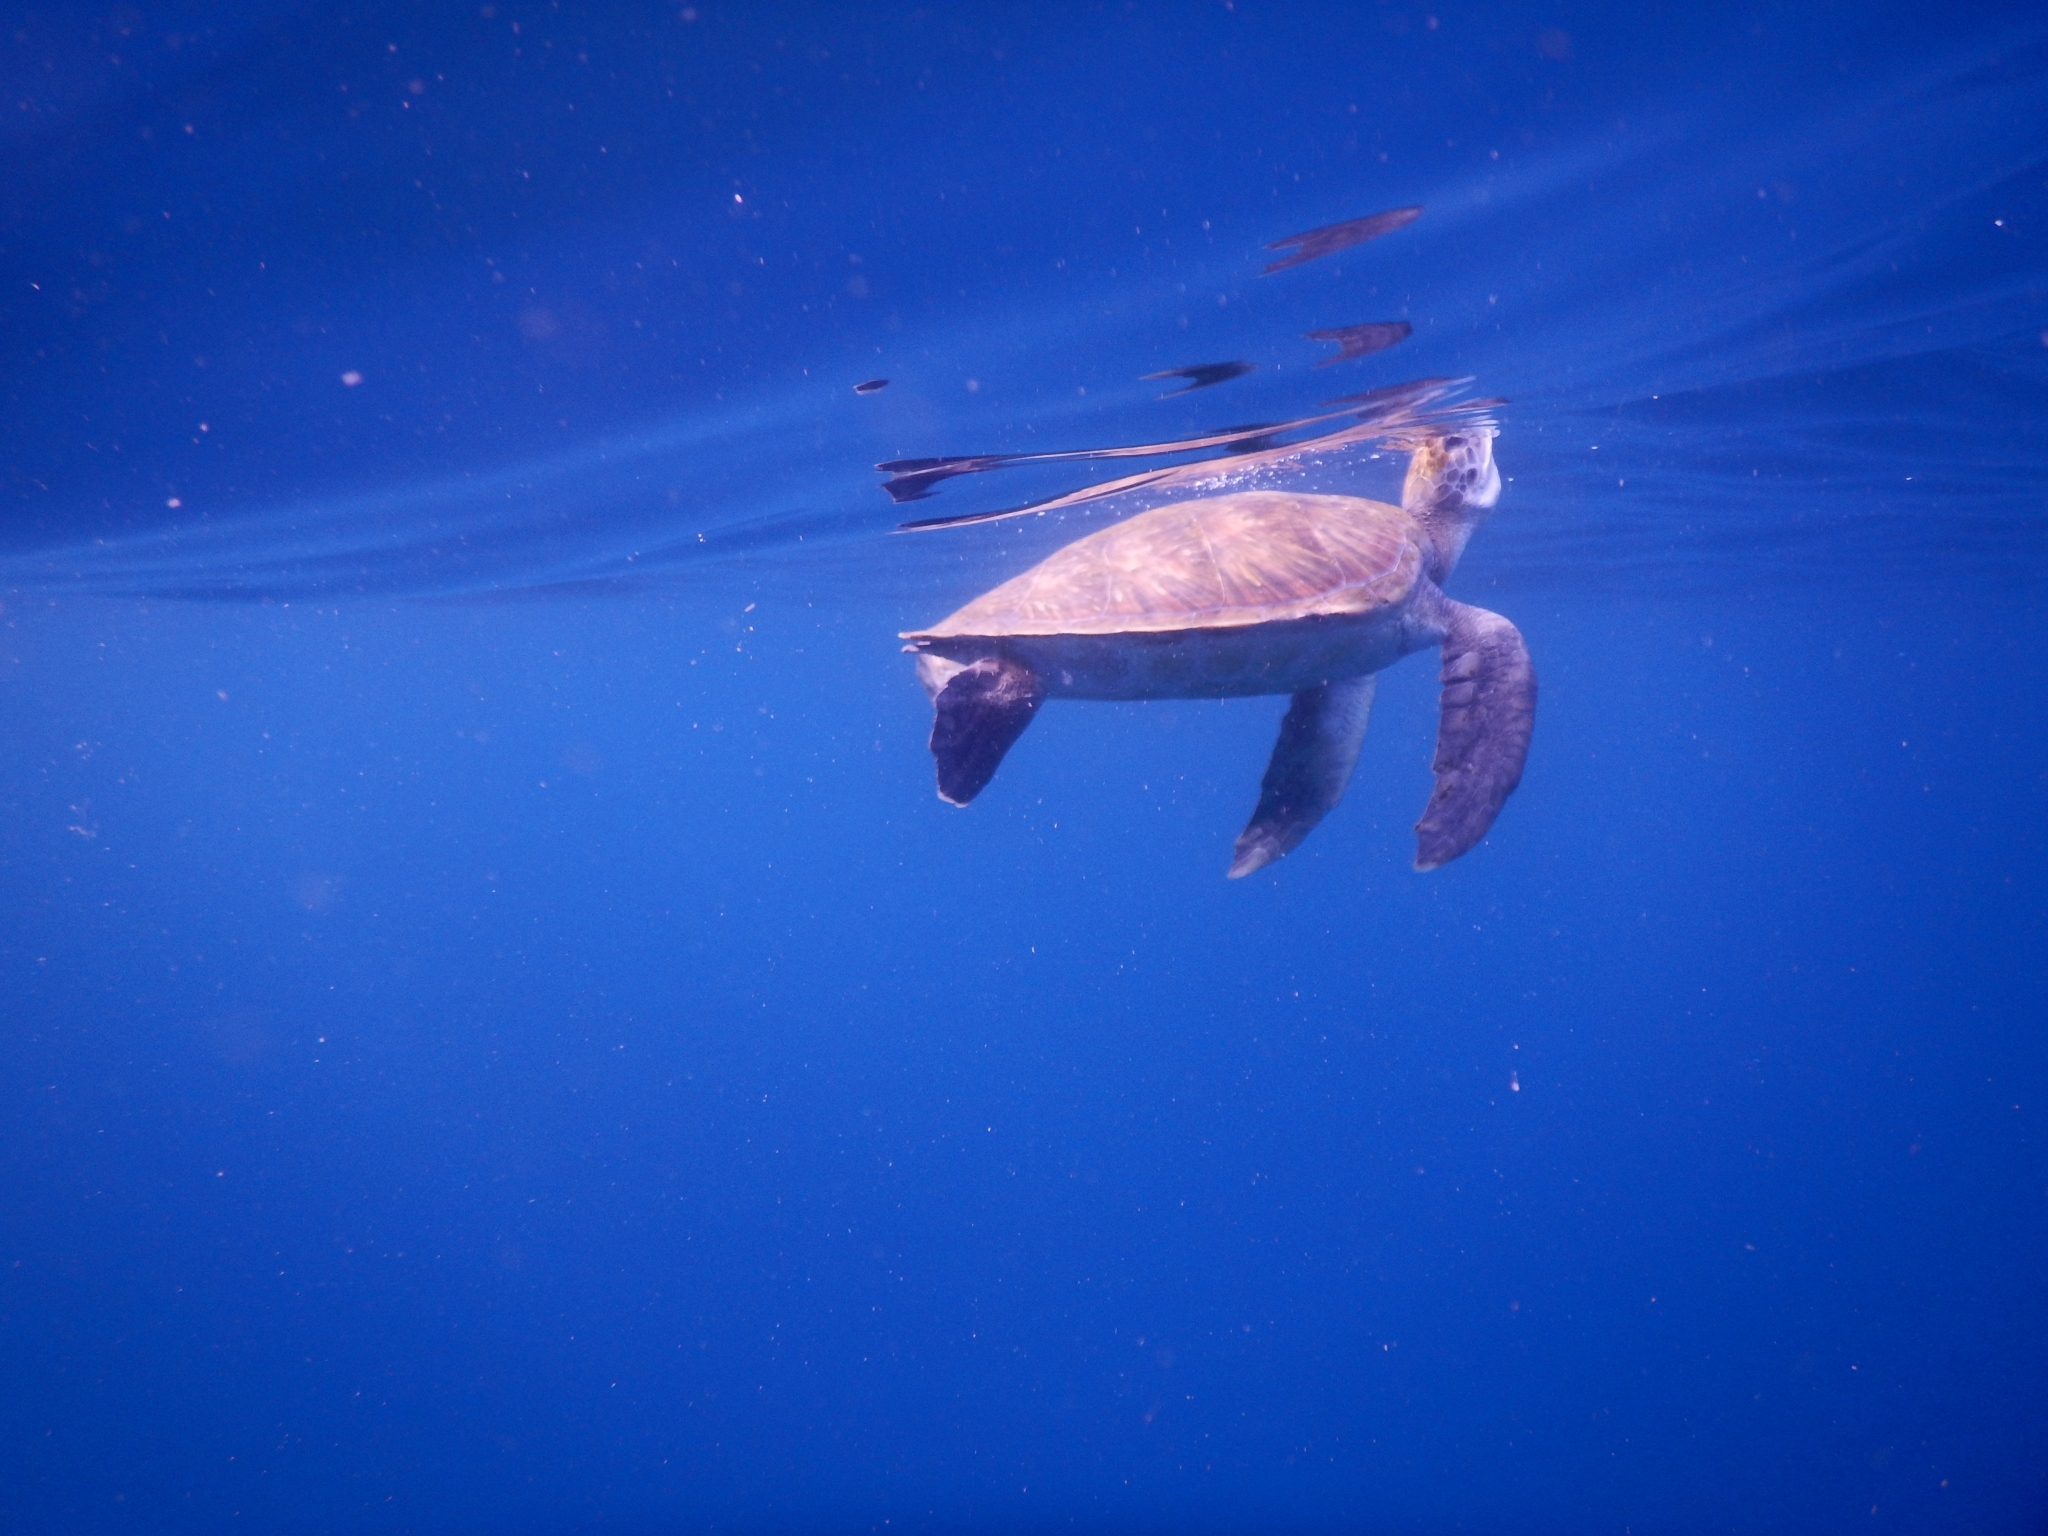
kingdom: Animalia
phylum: Chordata
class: Testudines
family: Cheloniidae
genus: Chelonia
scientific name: Chelonia mydas
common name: Green turtle
